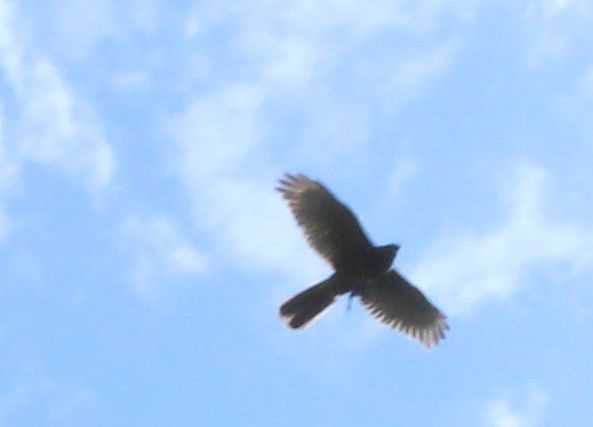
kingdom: Animalia
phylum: Chordata
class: Aves
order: Accipitriformes
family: Accipitridae
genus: Accipiter
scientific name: Accipiter fasciatus
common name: Brown goshawk
